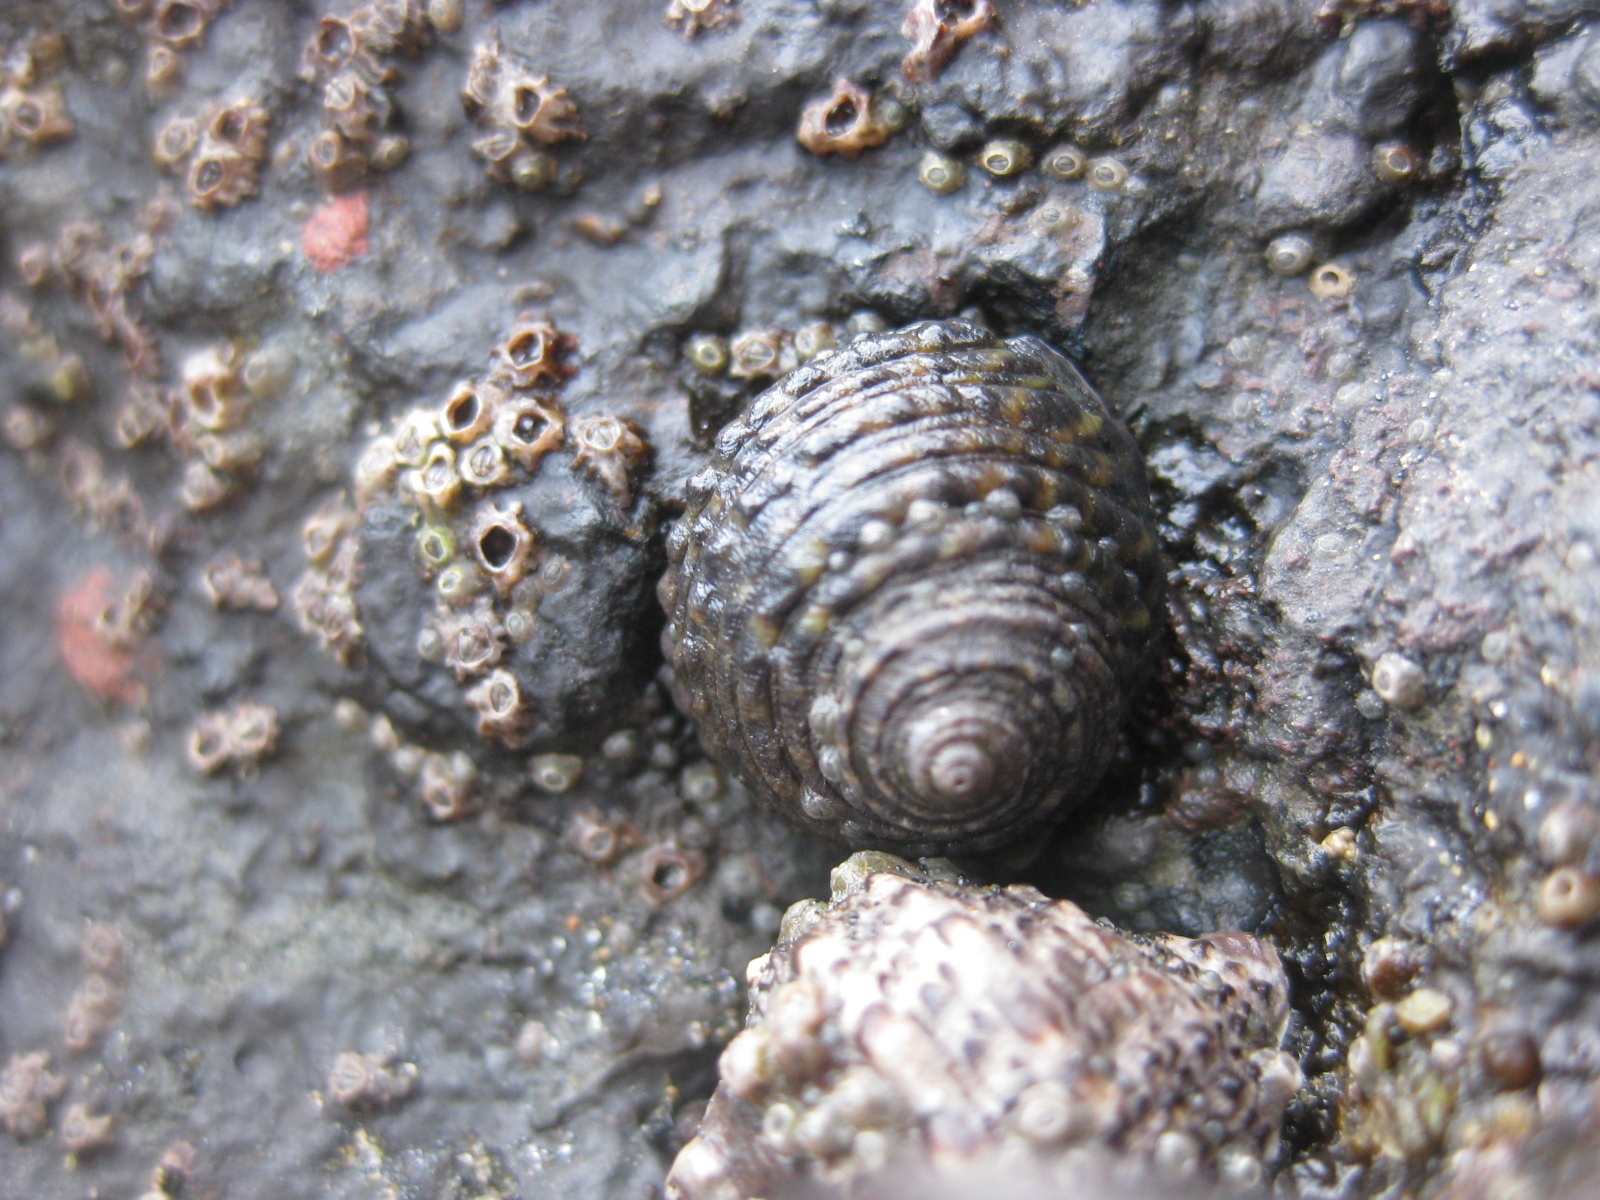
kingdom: Animalia
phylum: Mollusca
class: Gastropoda
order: Trochida
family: Trochidae
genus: Diloma
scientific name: Diloma bicanaliculatum
